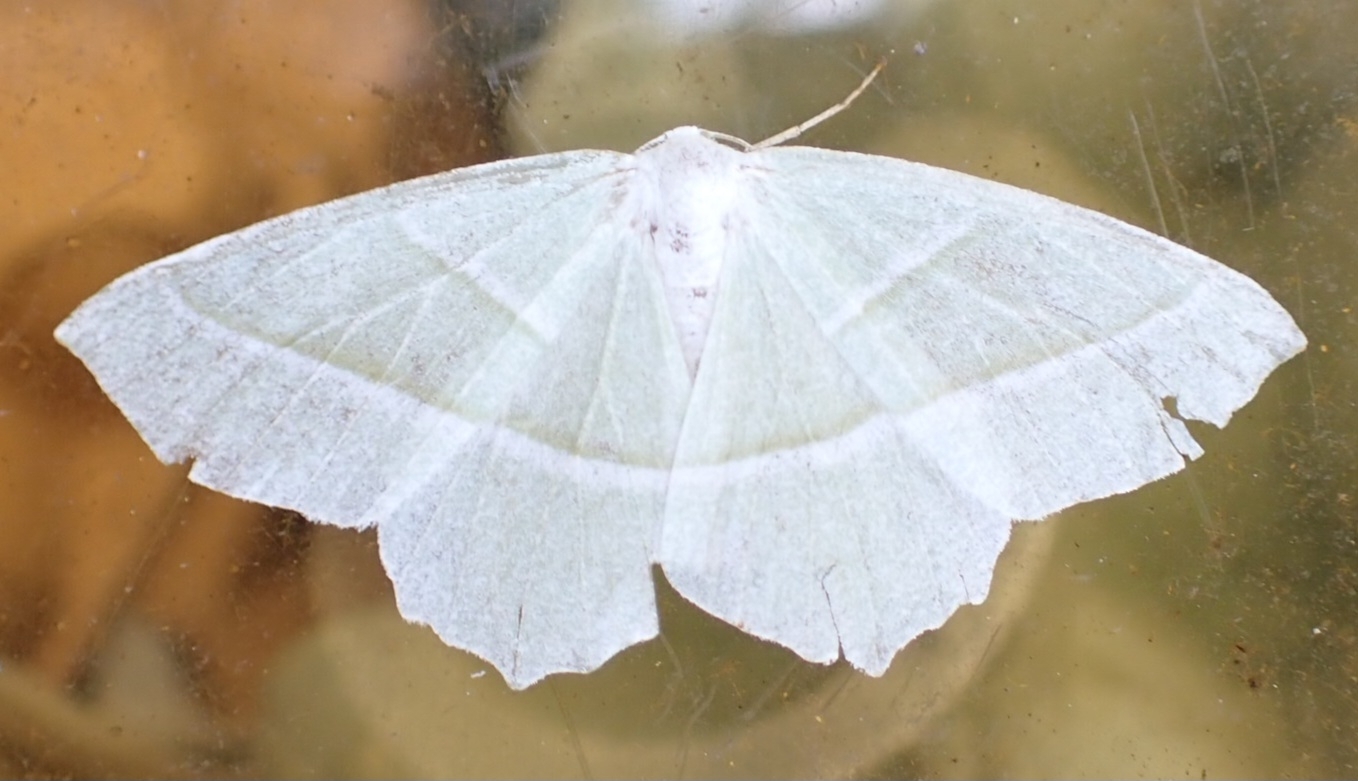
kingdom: Animalia
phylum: Arthropoda
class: Insecta
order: Lepidoptera
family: Geometridae
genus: Campaea
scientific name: Campaea margaritaria
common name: Light emerald
